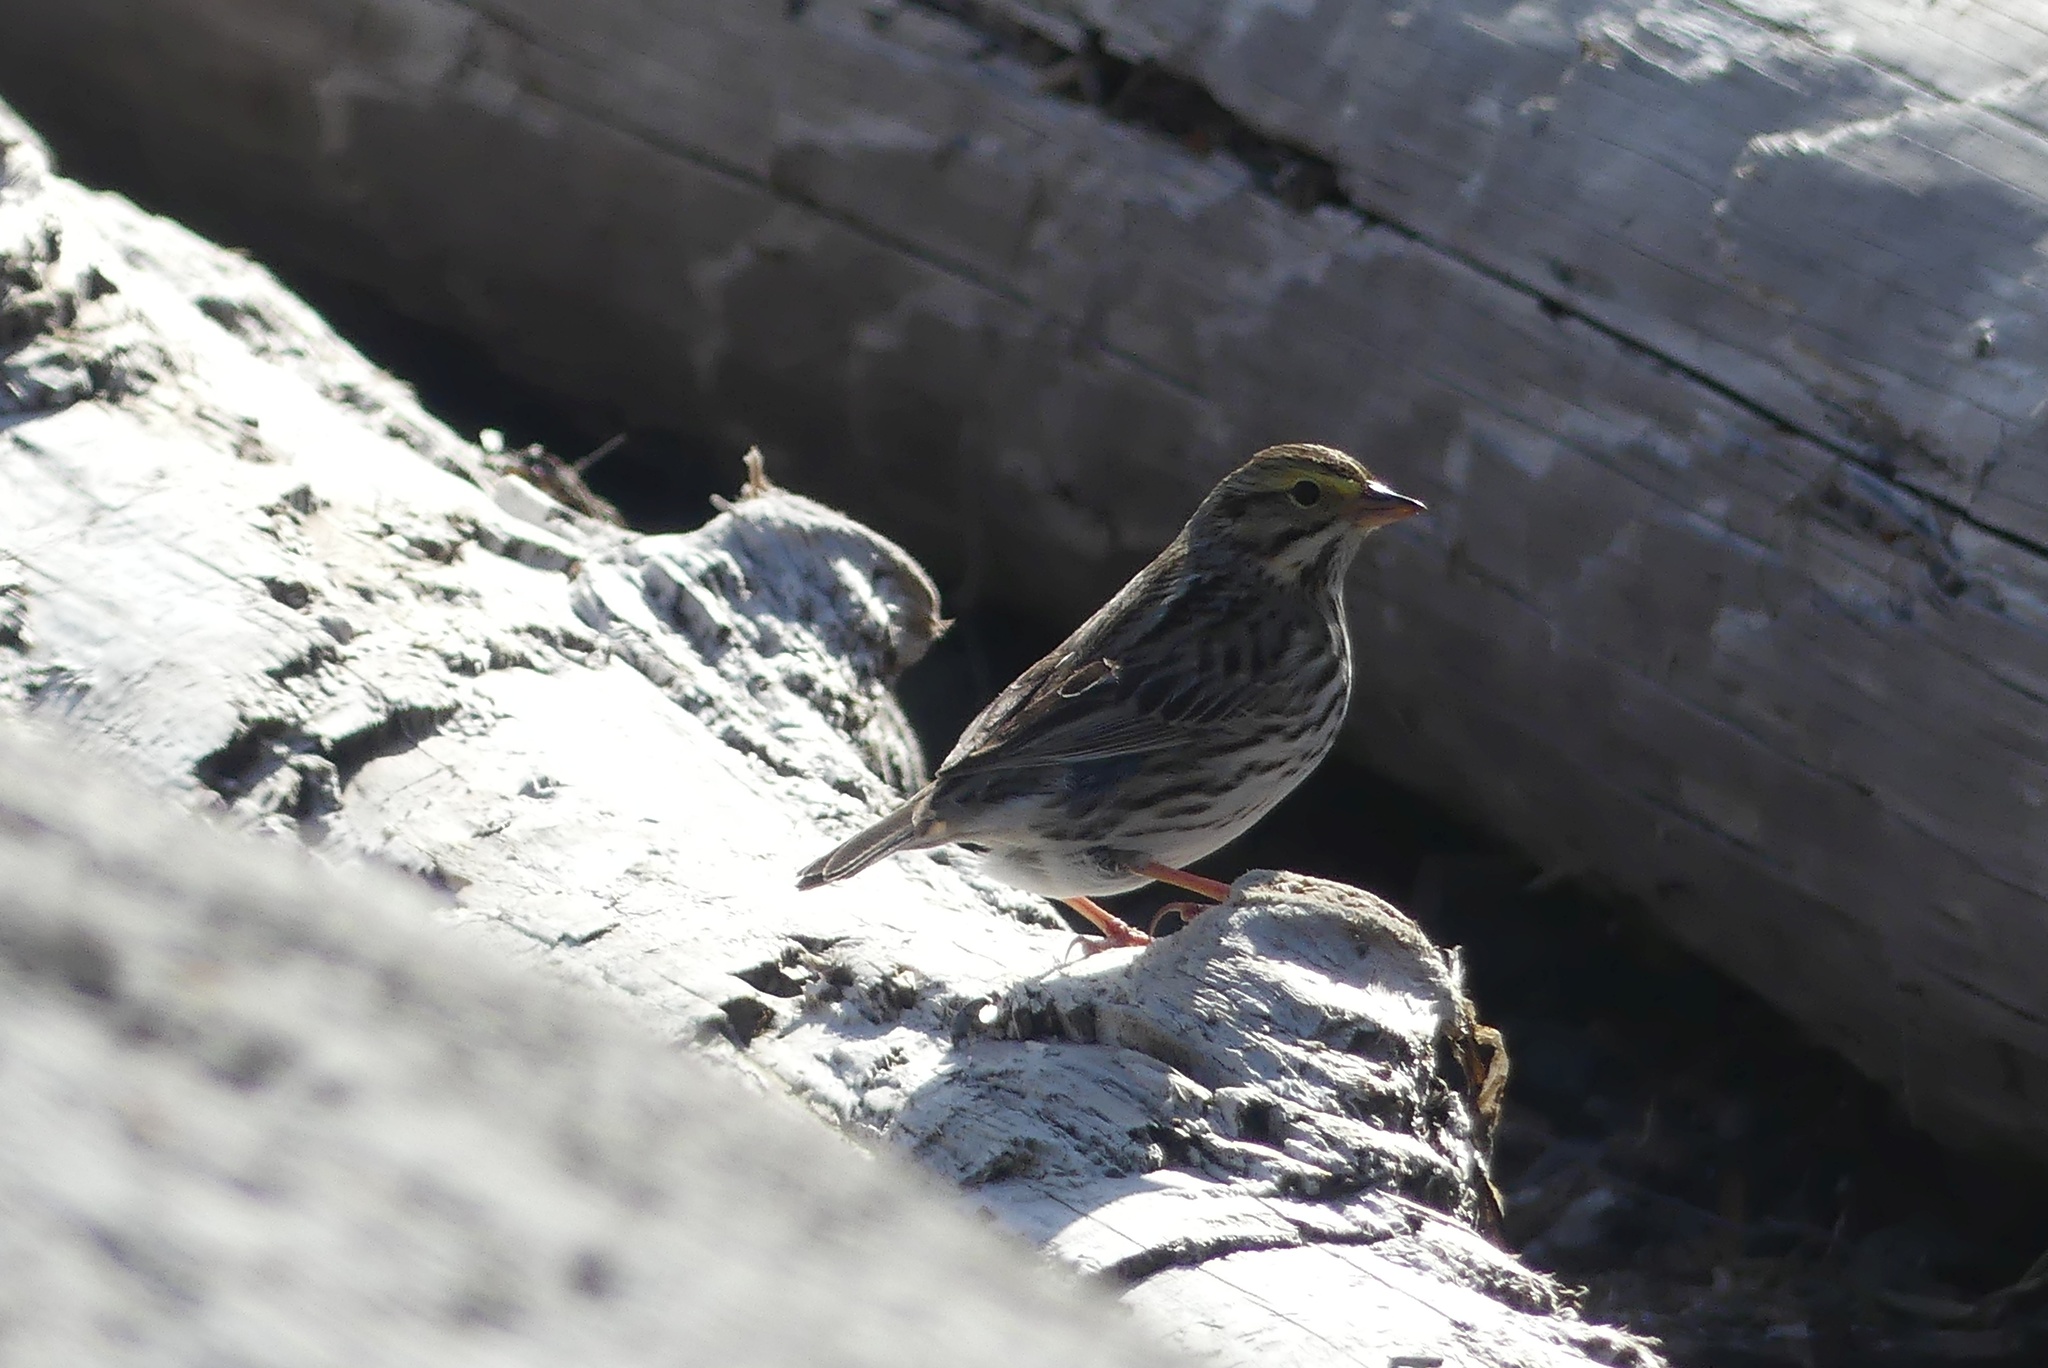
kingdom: Animalia
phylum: Chordata
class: Aves
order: Passeriformes
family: Passerellidae
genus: Passerculus
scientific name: Passerculus sandwichensis
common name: Savannah sparrow
